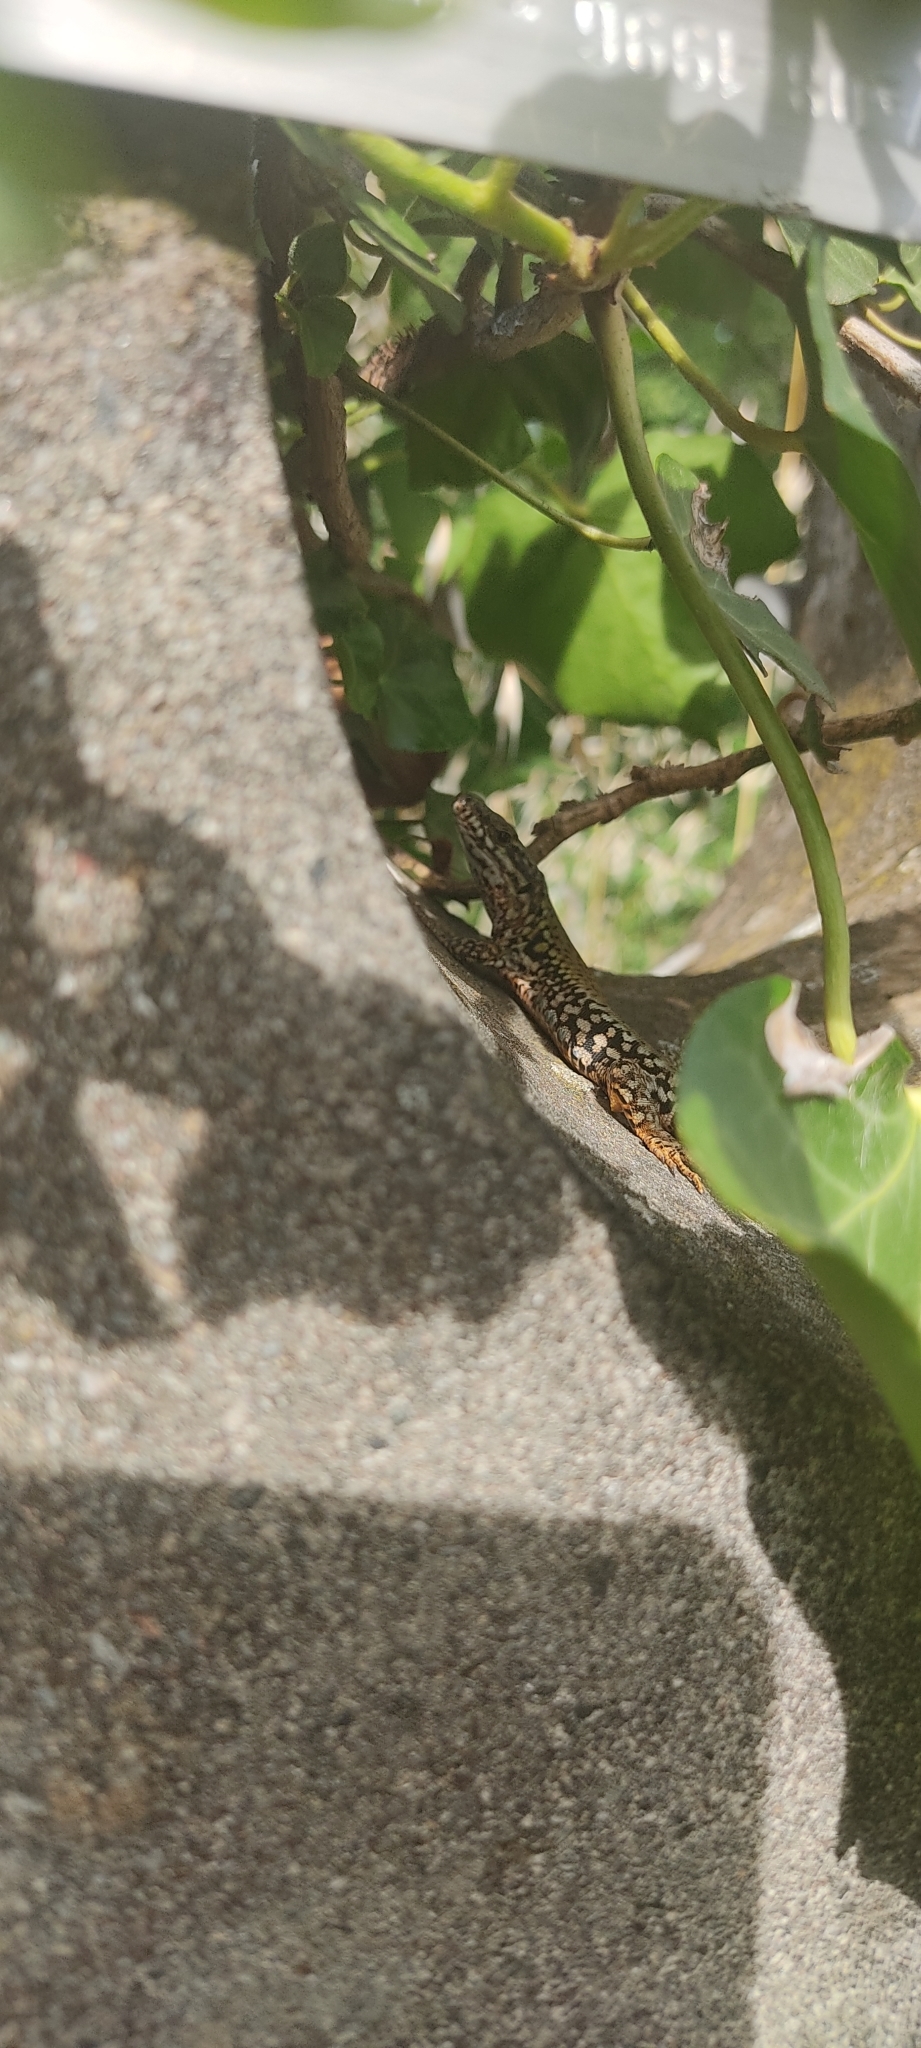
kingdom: Animalia
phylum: Chordata
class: Squamata
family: Lacertidae
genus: Podarcis
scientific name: Podarcis muralis
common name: Common wall lizard
